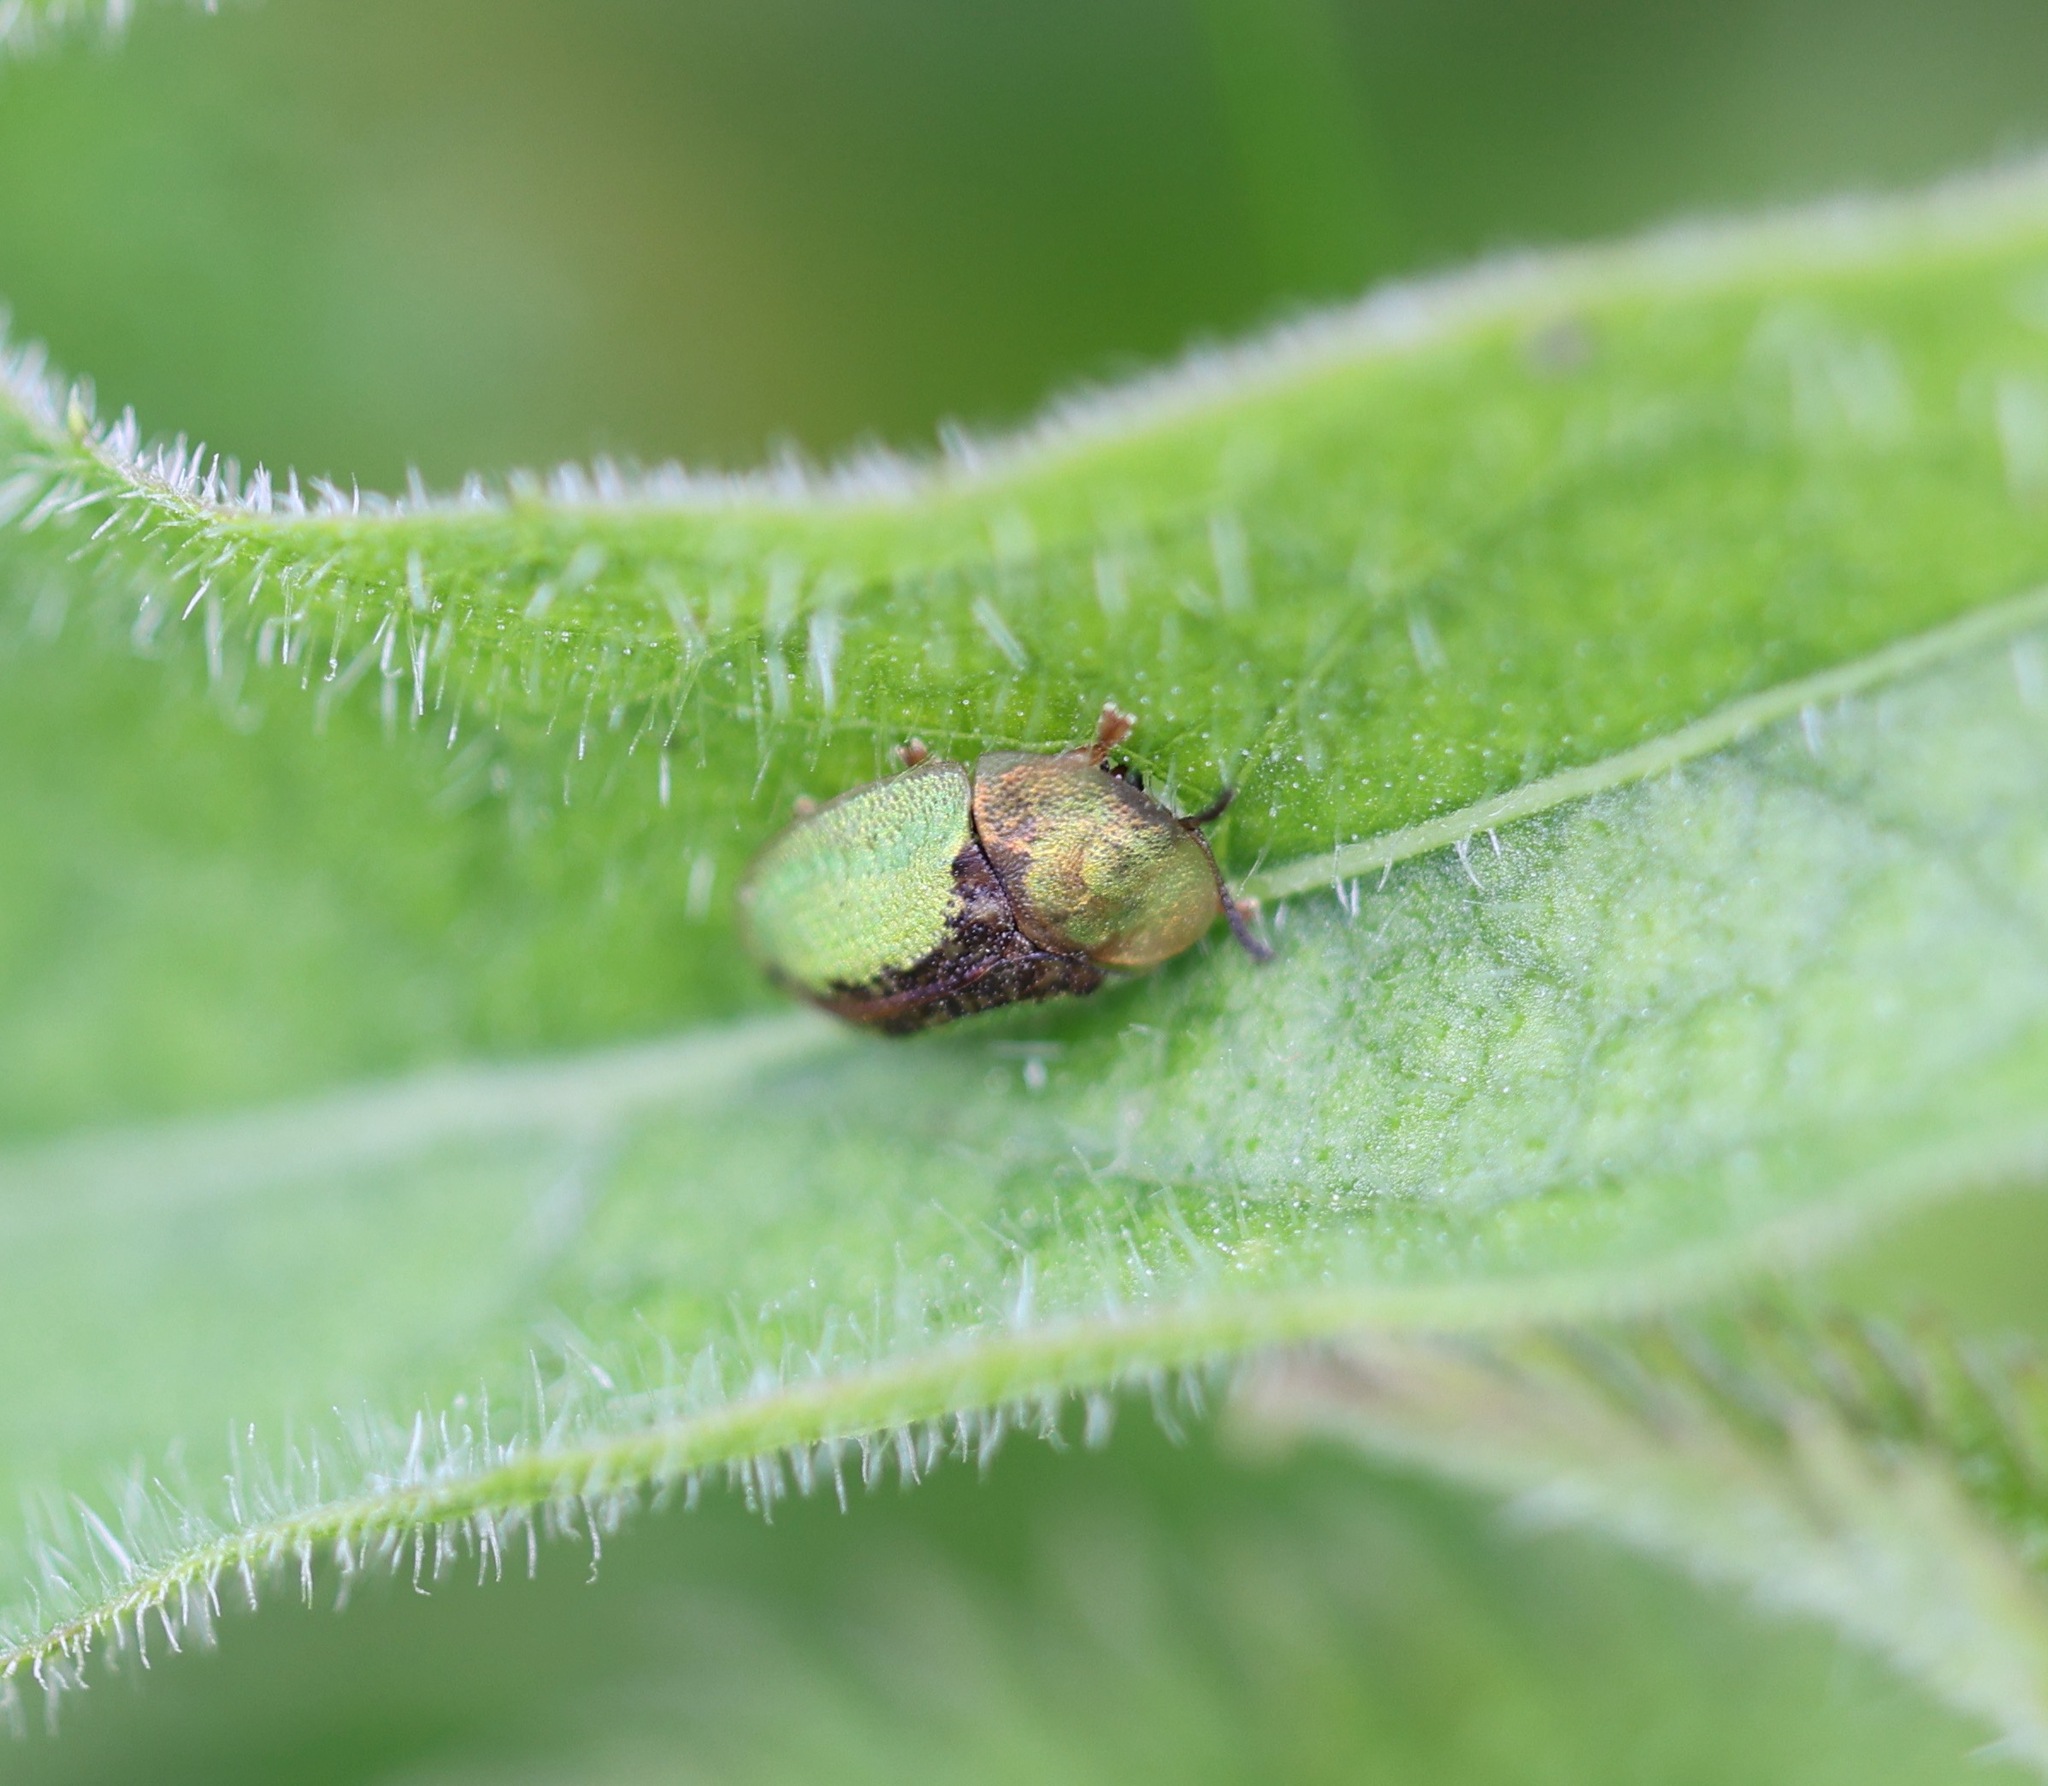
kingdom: Animalia
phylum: Arthropoda
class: Insecta
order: Coleoptera
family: Chrysomelidae
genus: Cassida
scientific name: Cassida vibex
